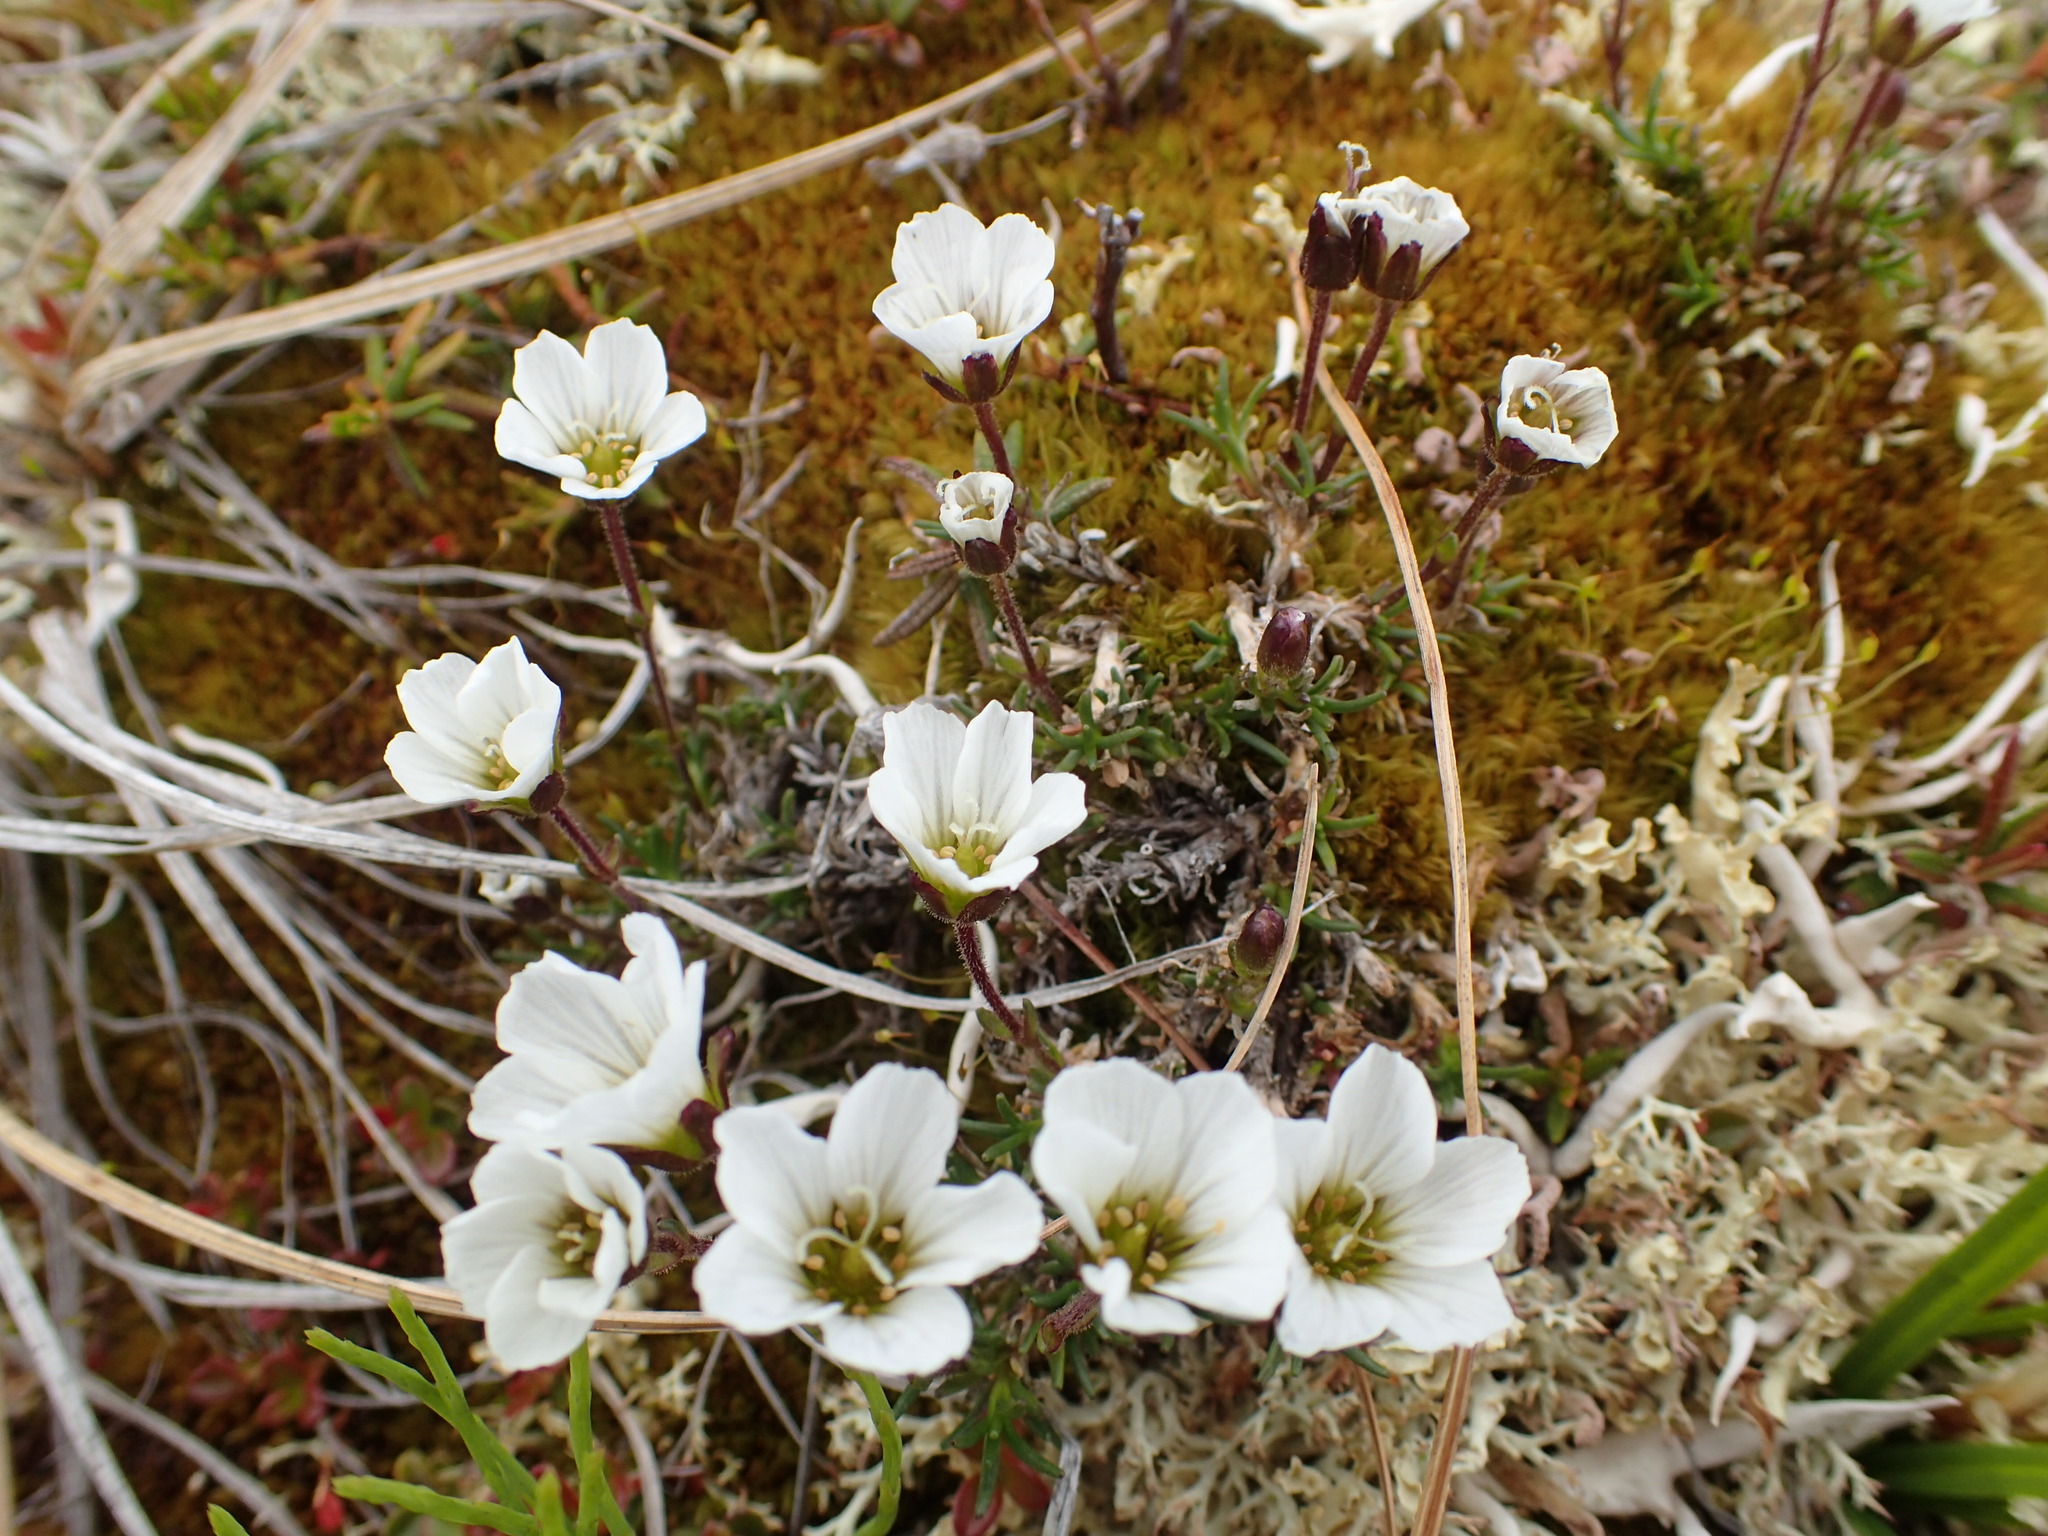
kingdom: Plantae
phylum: Tracheophyta
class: Magnoliopsida
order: Caryophyllales
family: Caryophyllaceae
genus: Cherleria
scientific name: Cherleria arctica
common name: Arctic sandwort
